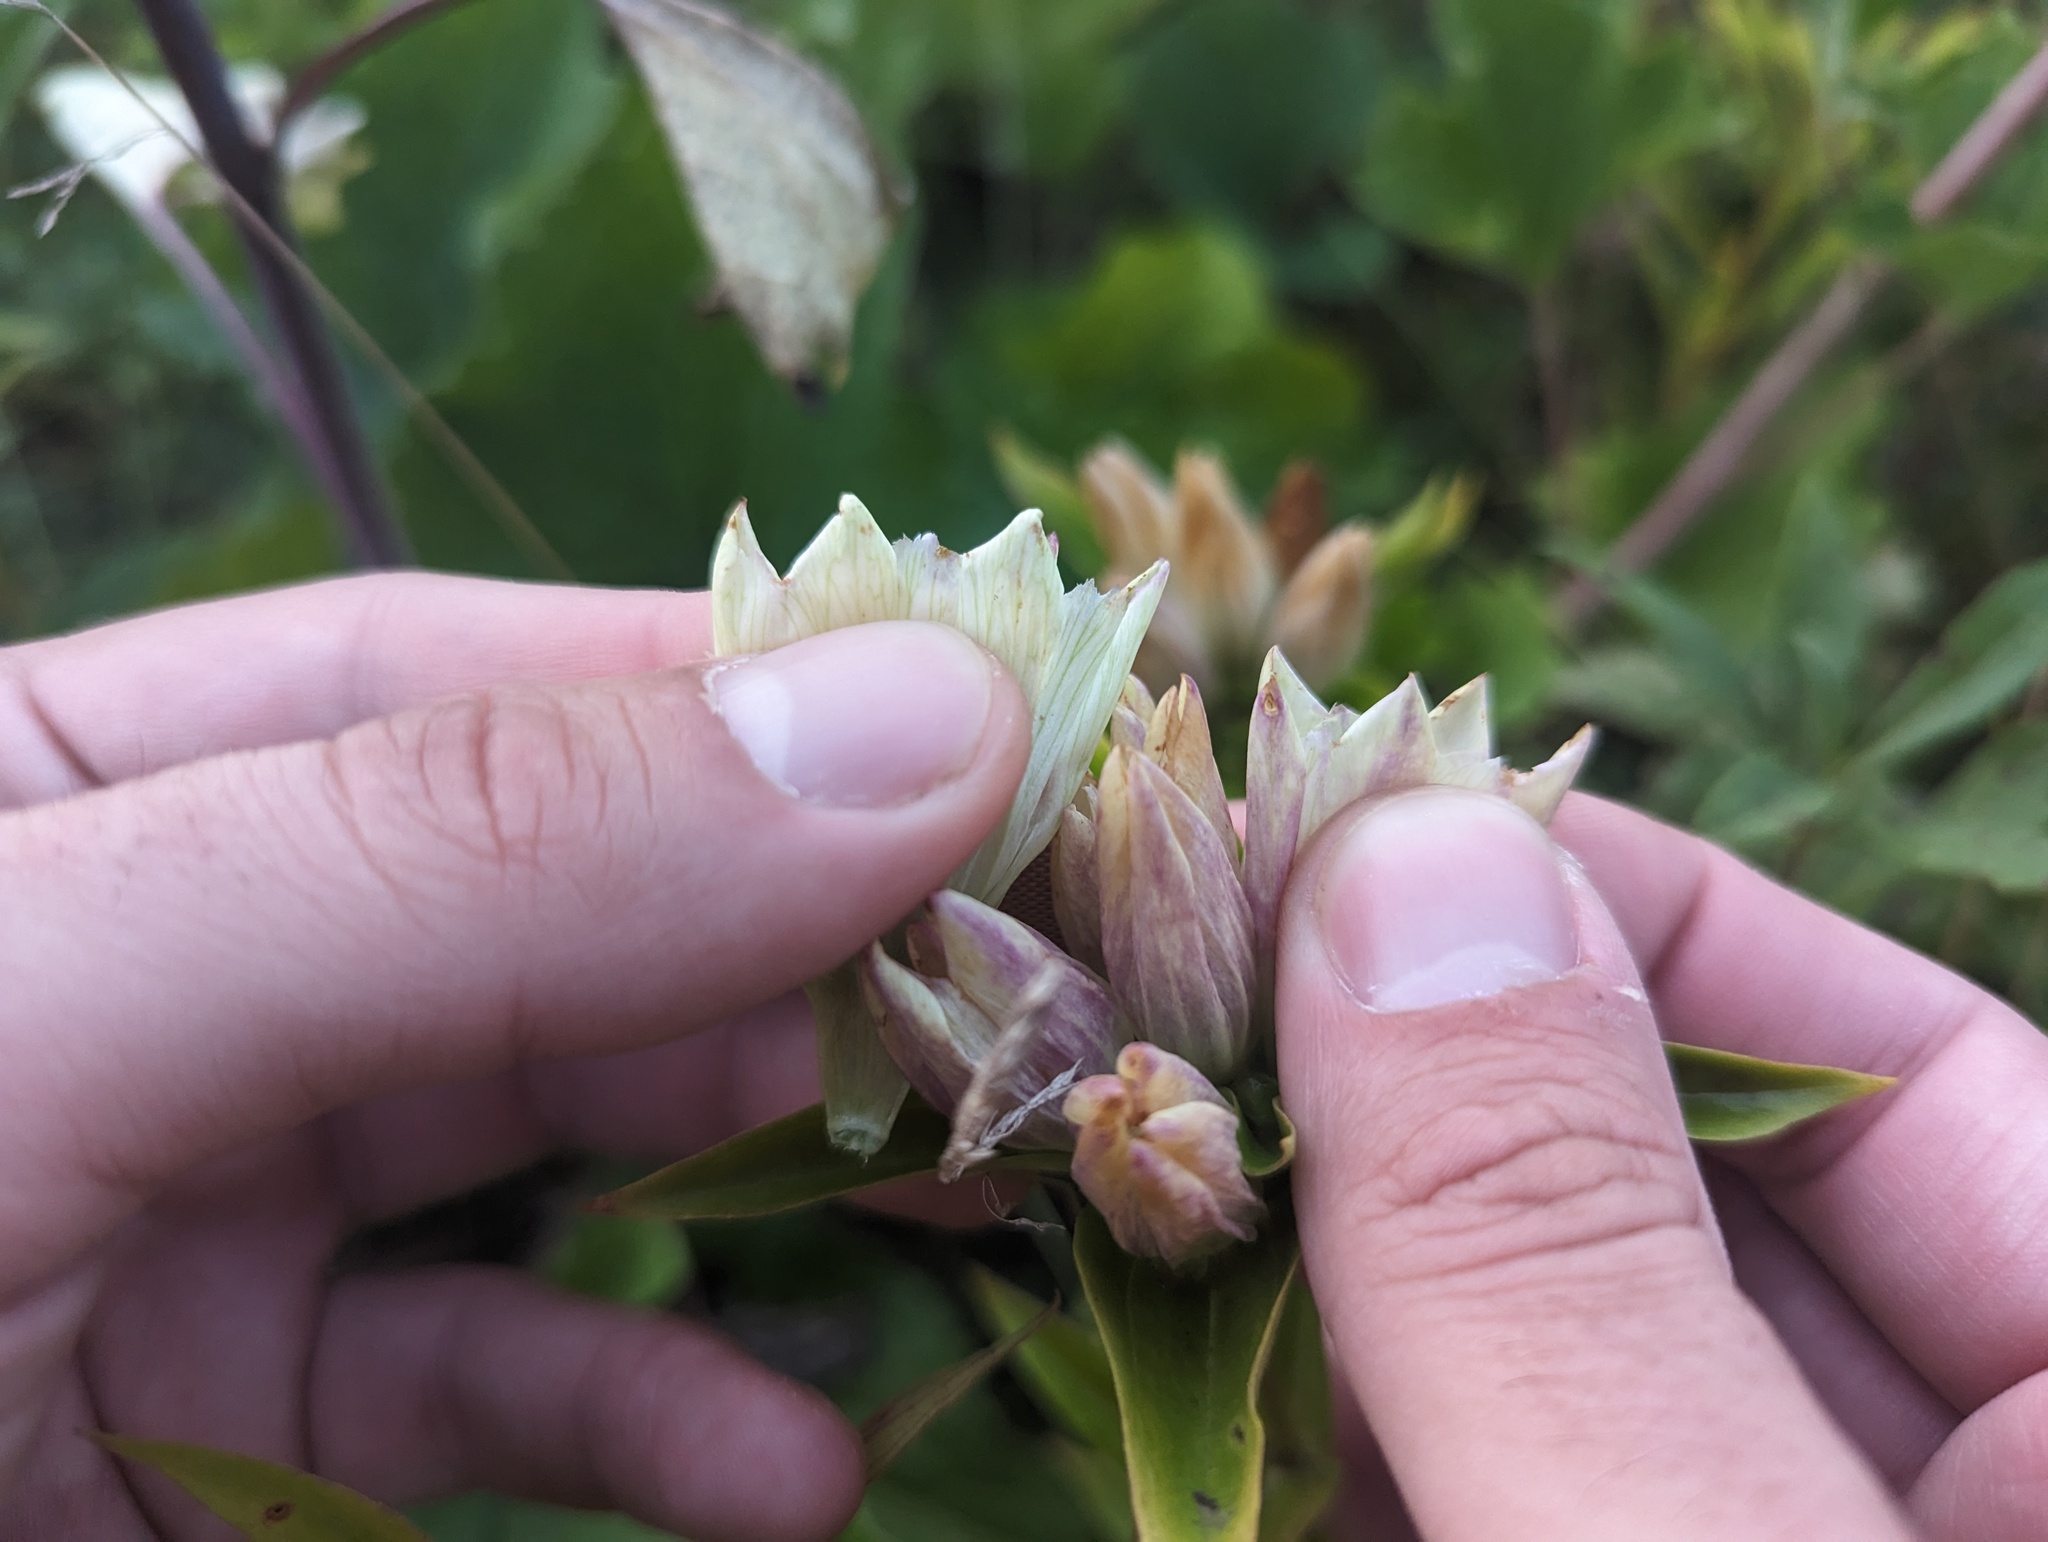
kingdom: Plantae
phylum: Tracheophyta
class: Magnoliopsida
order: Gentianales
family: Gentianaceae
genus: Gentiana
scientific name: Gentiana curtisii
